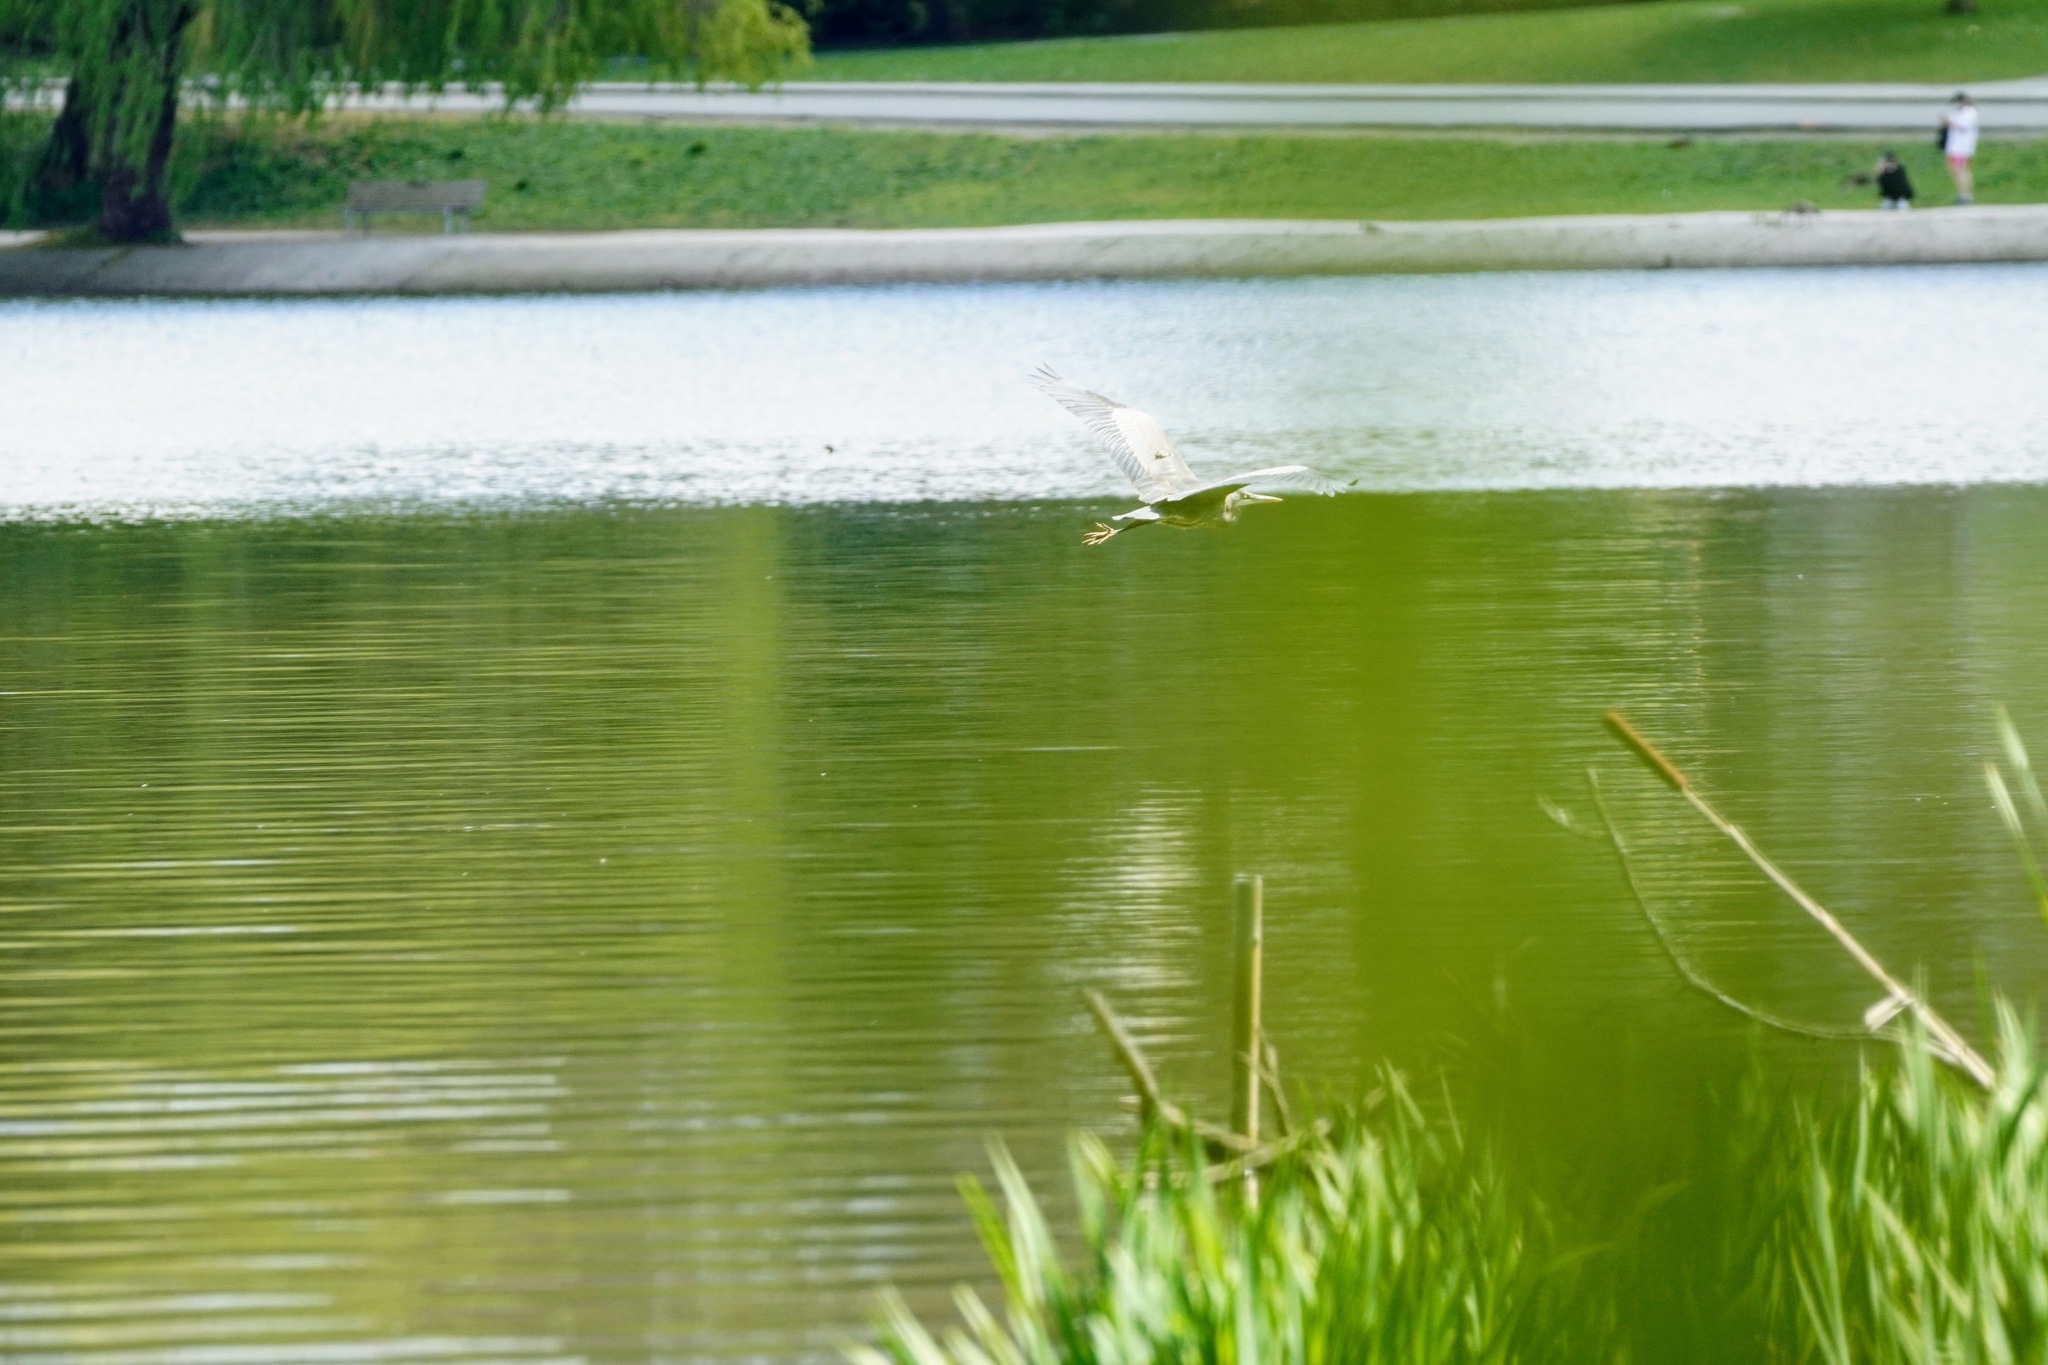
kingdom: Animalia
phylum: Chordata
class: Aves
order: Pelecaniformes
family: Ardeidae
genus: Ardea
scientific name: Ardea herodias
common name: Great blue heron
